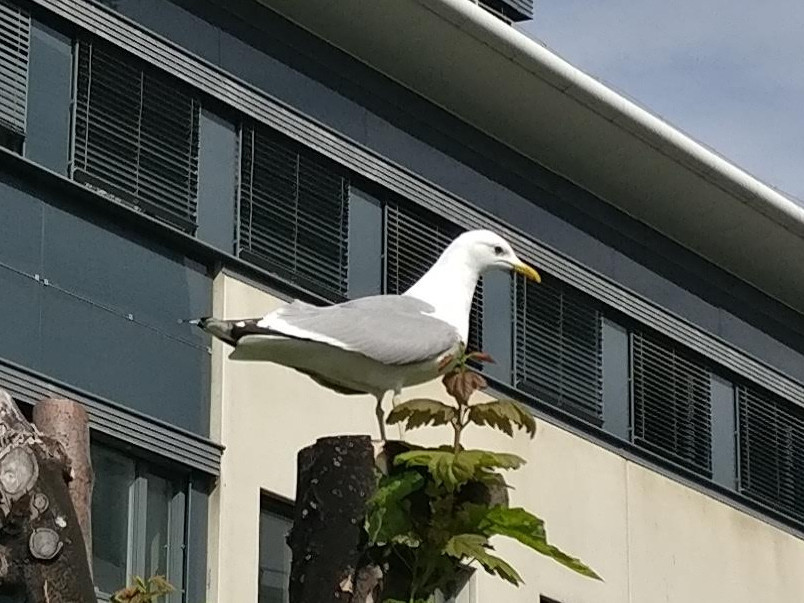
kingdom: Animalia
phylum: Chordata
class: Aves
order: Charadriiformes
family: Laridae
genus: Larus
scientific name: Larus canus
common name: Mew gull
